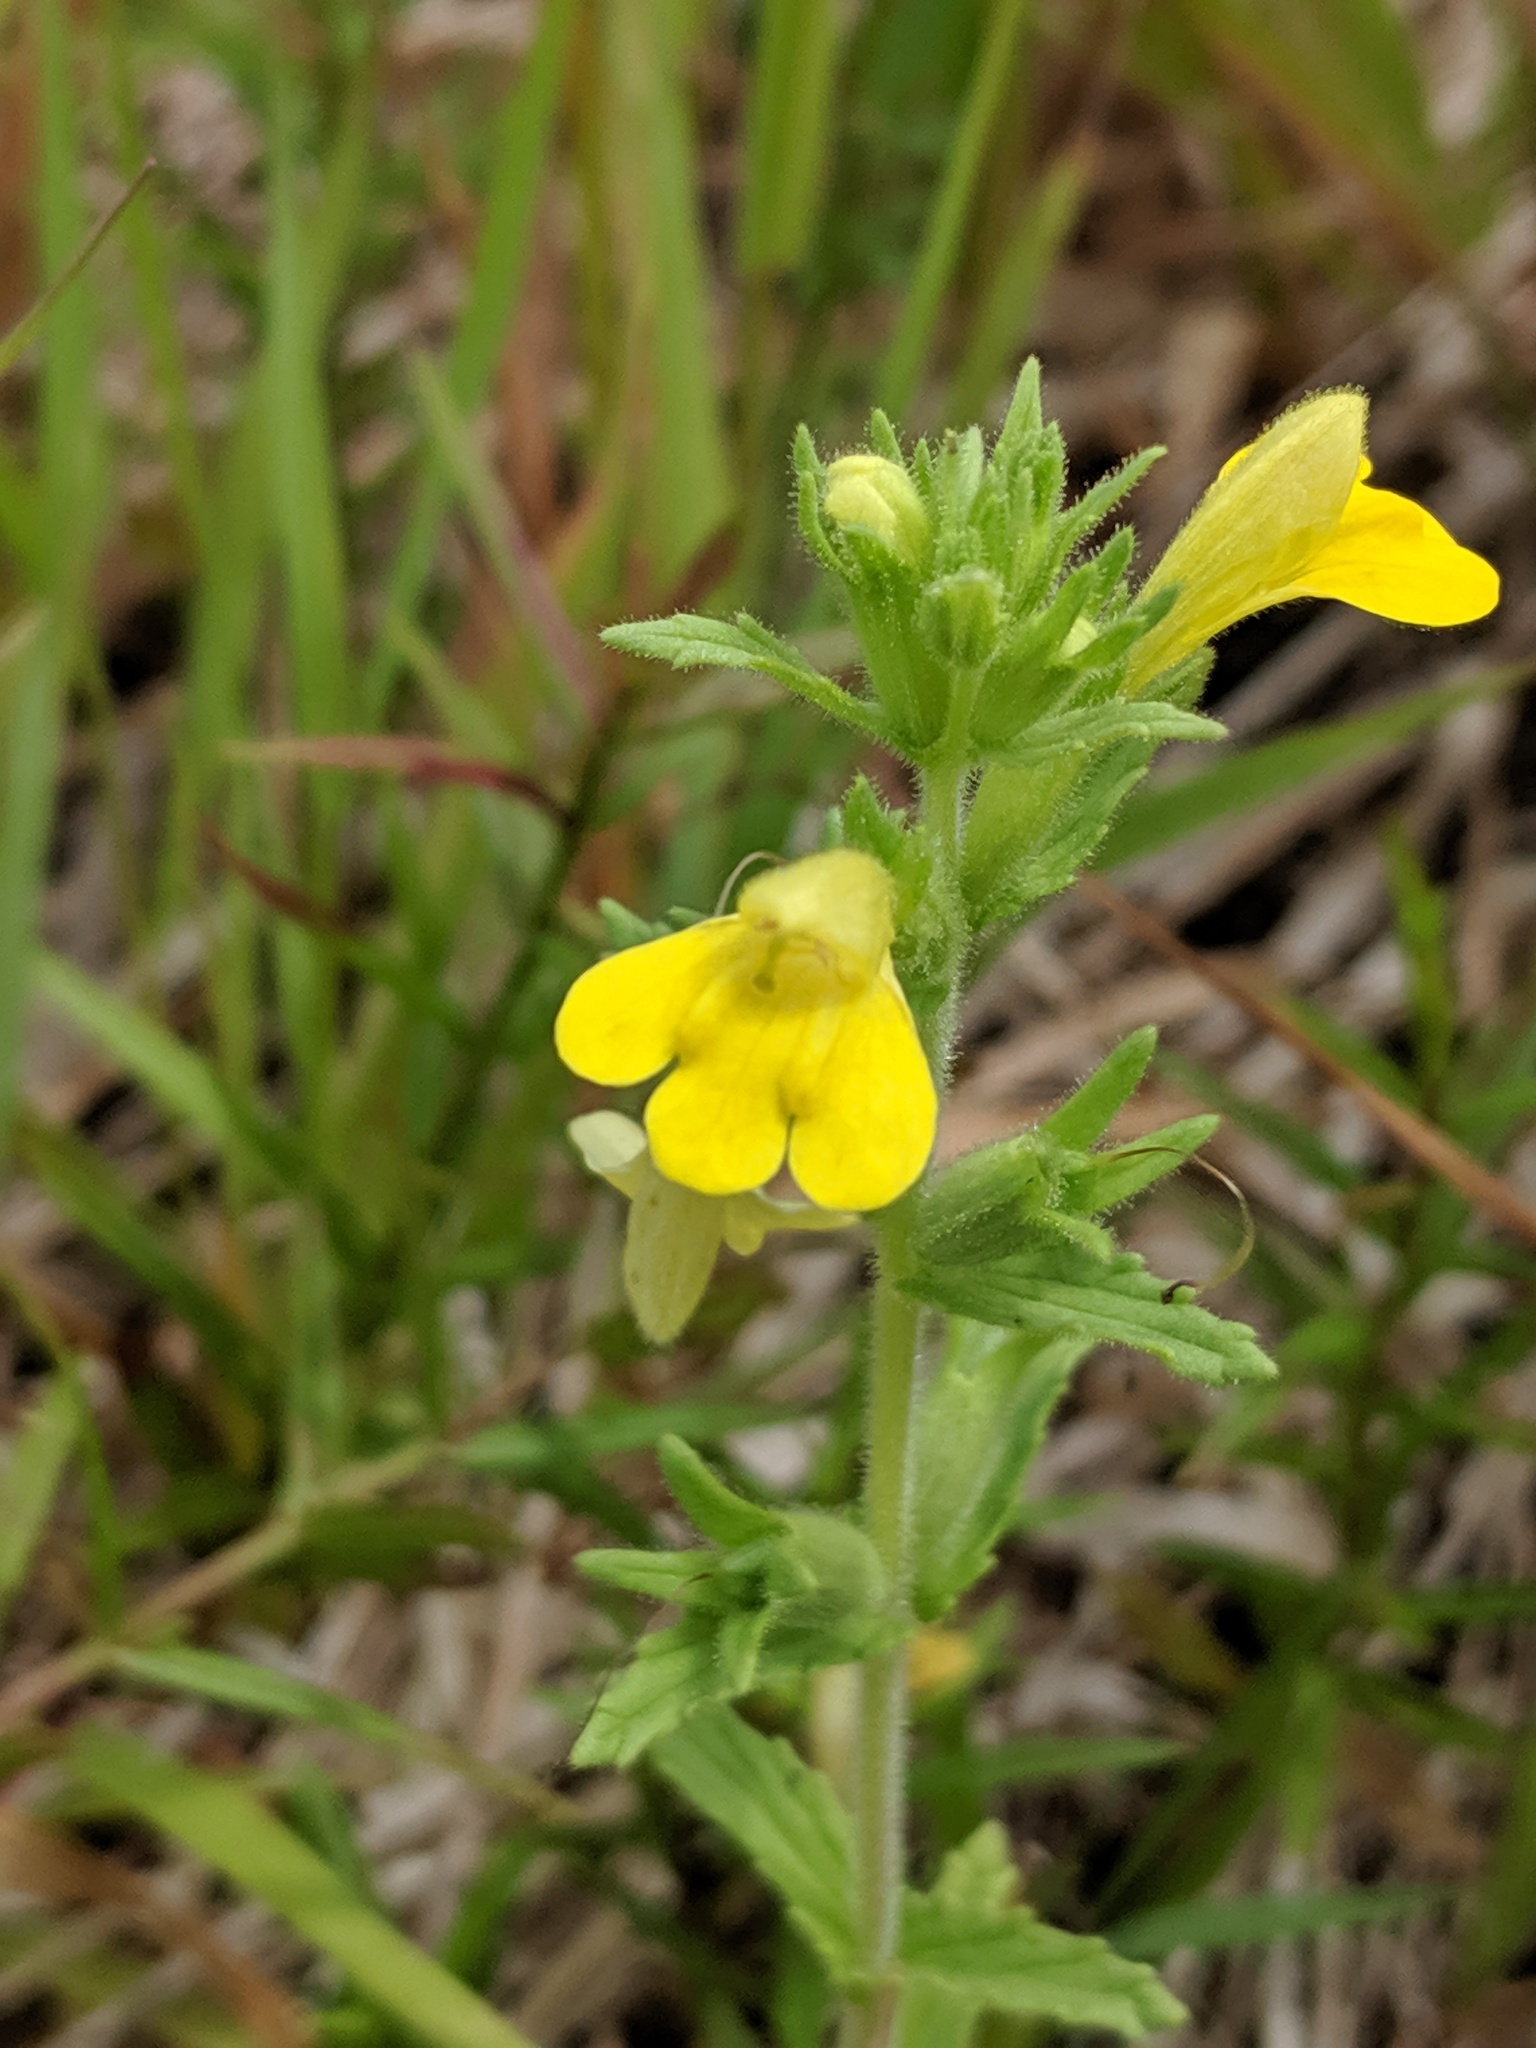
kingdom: Plantae
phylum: Tracheophyta
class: Magnoliopsida
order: Lamiales
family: Orobanchaceae
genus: Bellardia
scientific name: Bellardia viscosa
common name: Sticky parentucellia
